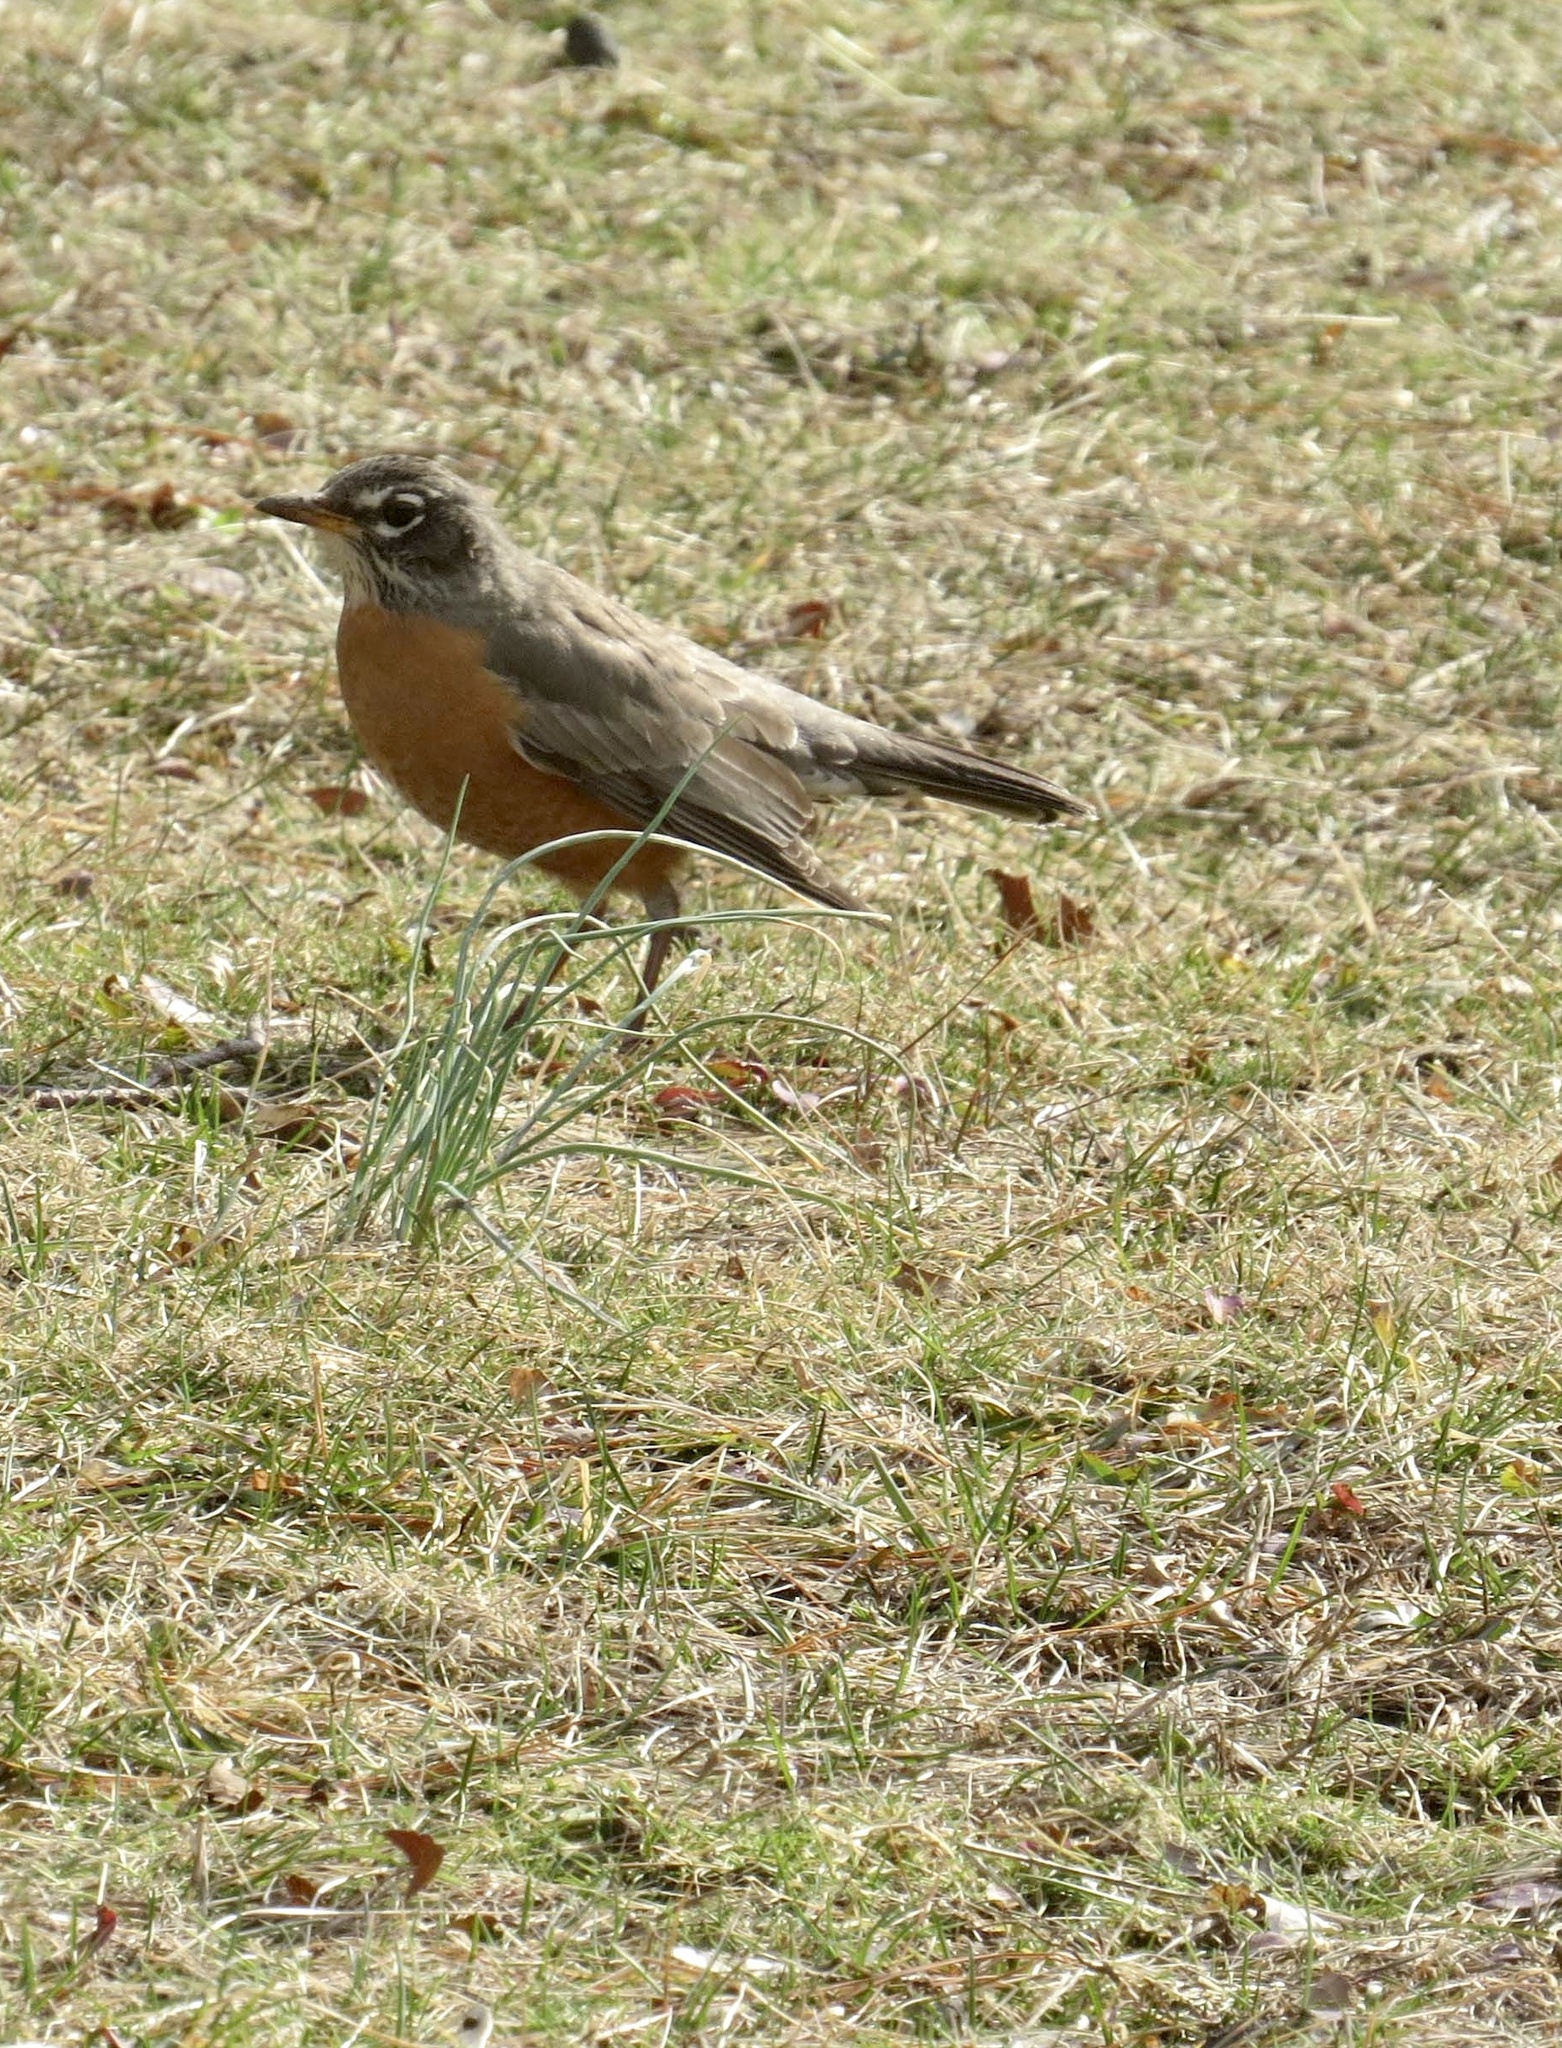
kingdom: Animalia
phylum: Chordata
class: Aves
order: Passeriformes
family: Turdidae
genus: Turdus
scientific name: Turdus migratorius
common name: American robin
